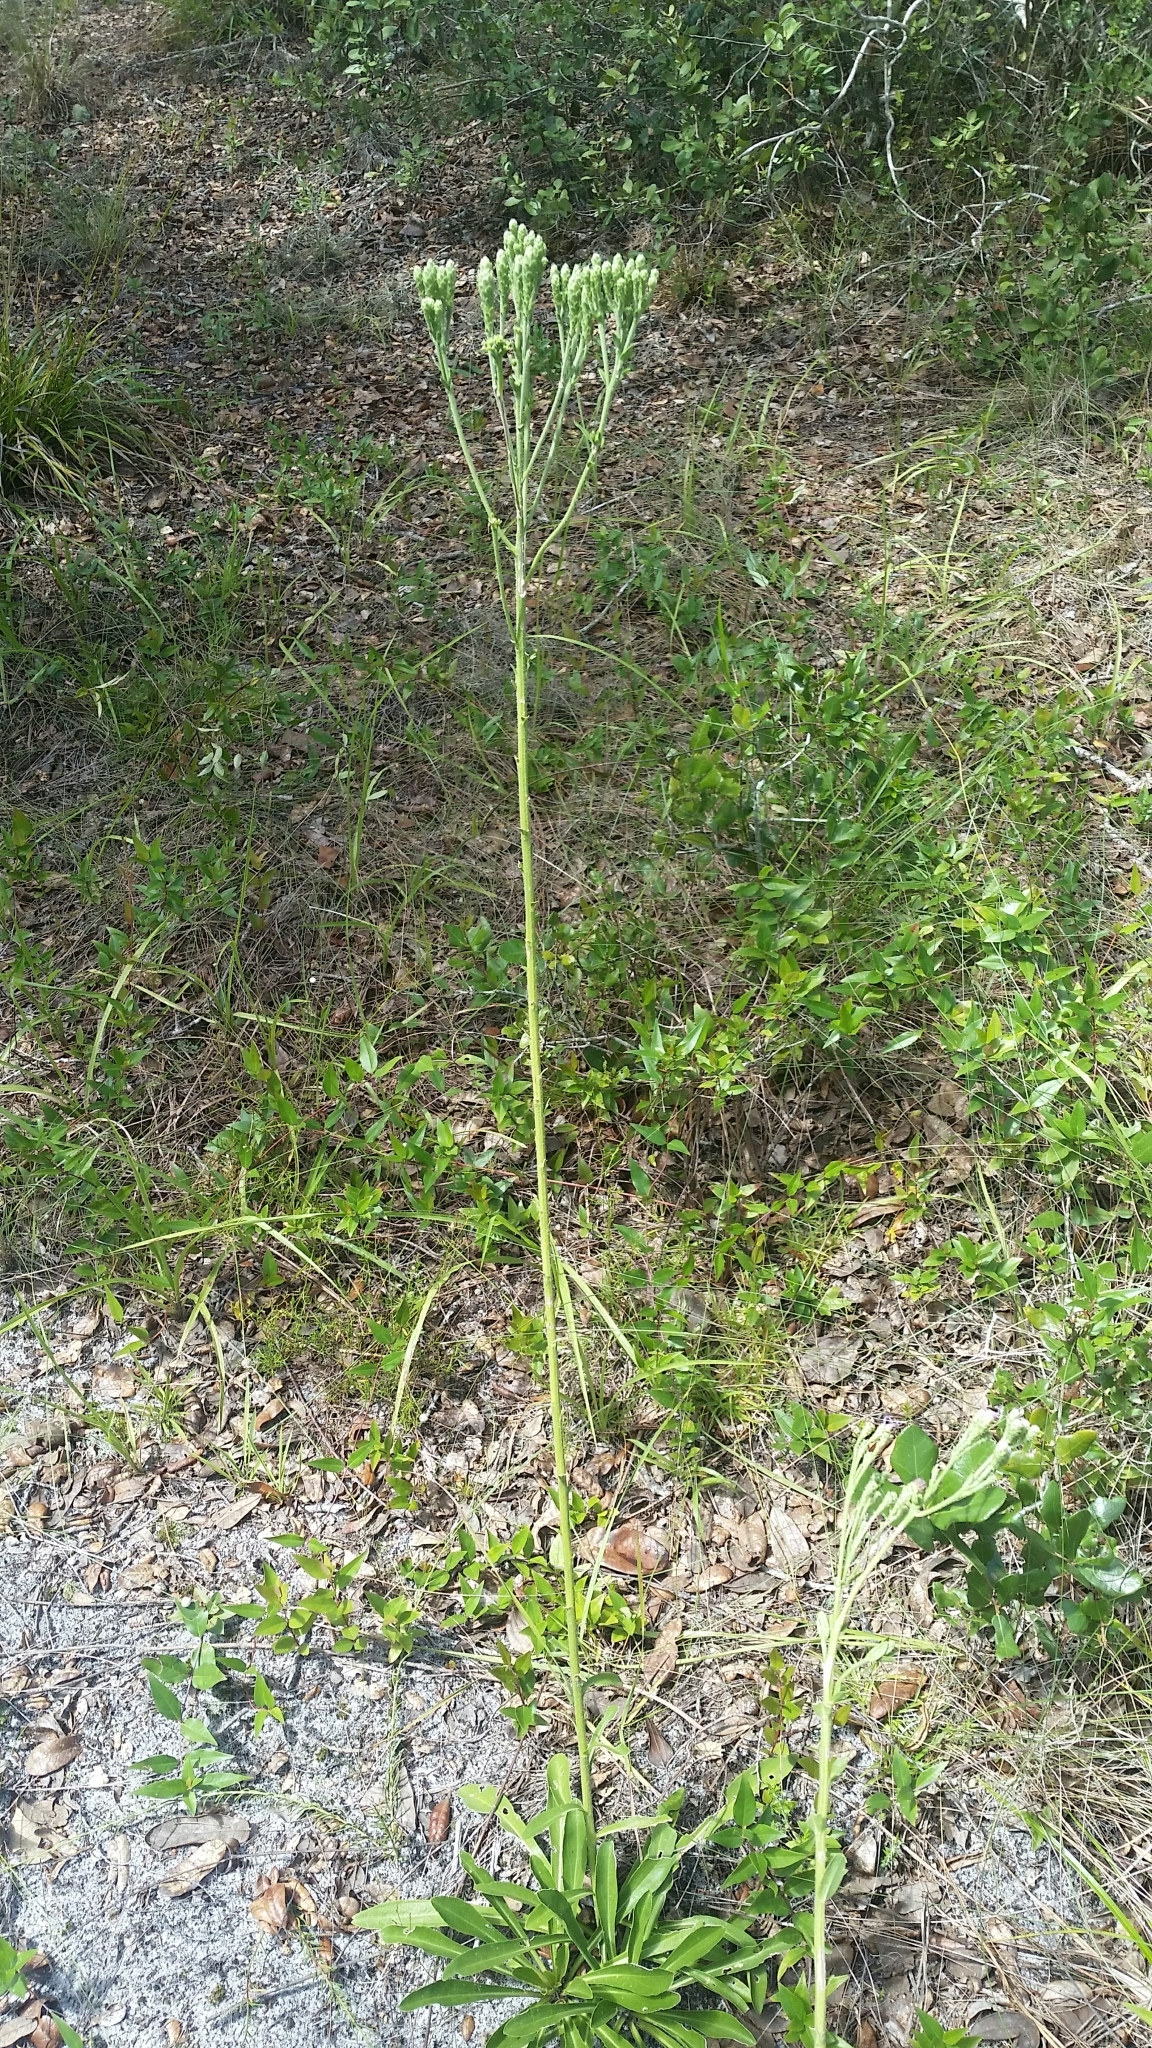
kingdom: Plantae
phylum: Tracheophyta
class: Magnoliopsida
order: Asterales
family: Asteraceae
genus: Carphephorus
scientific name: Carphephorus corymbosus
